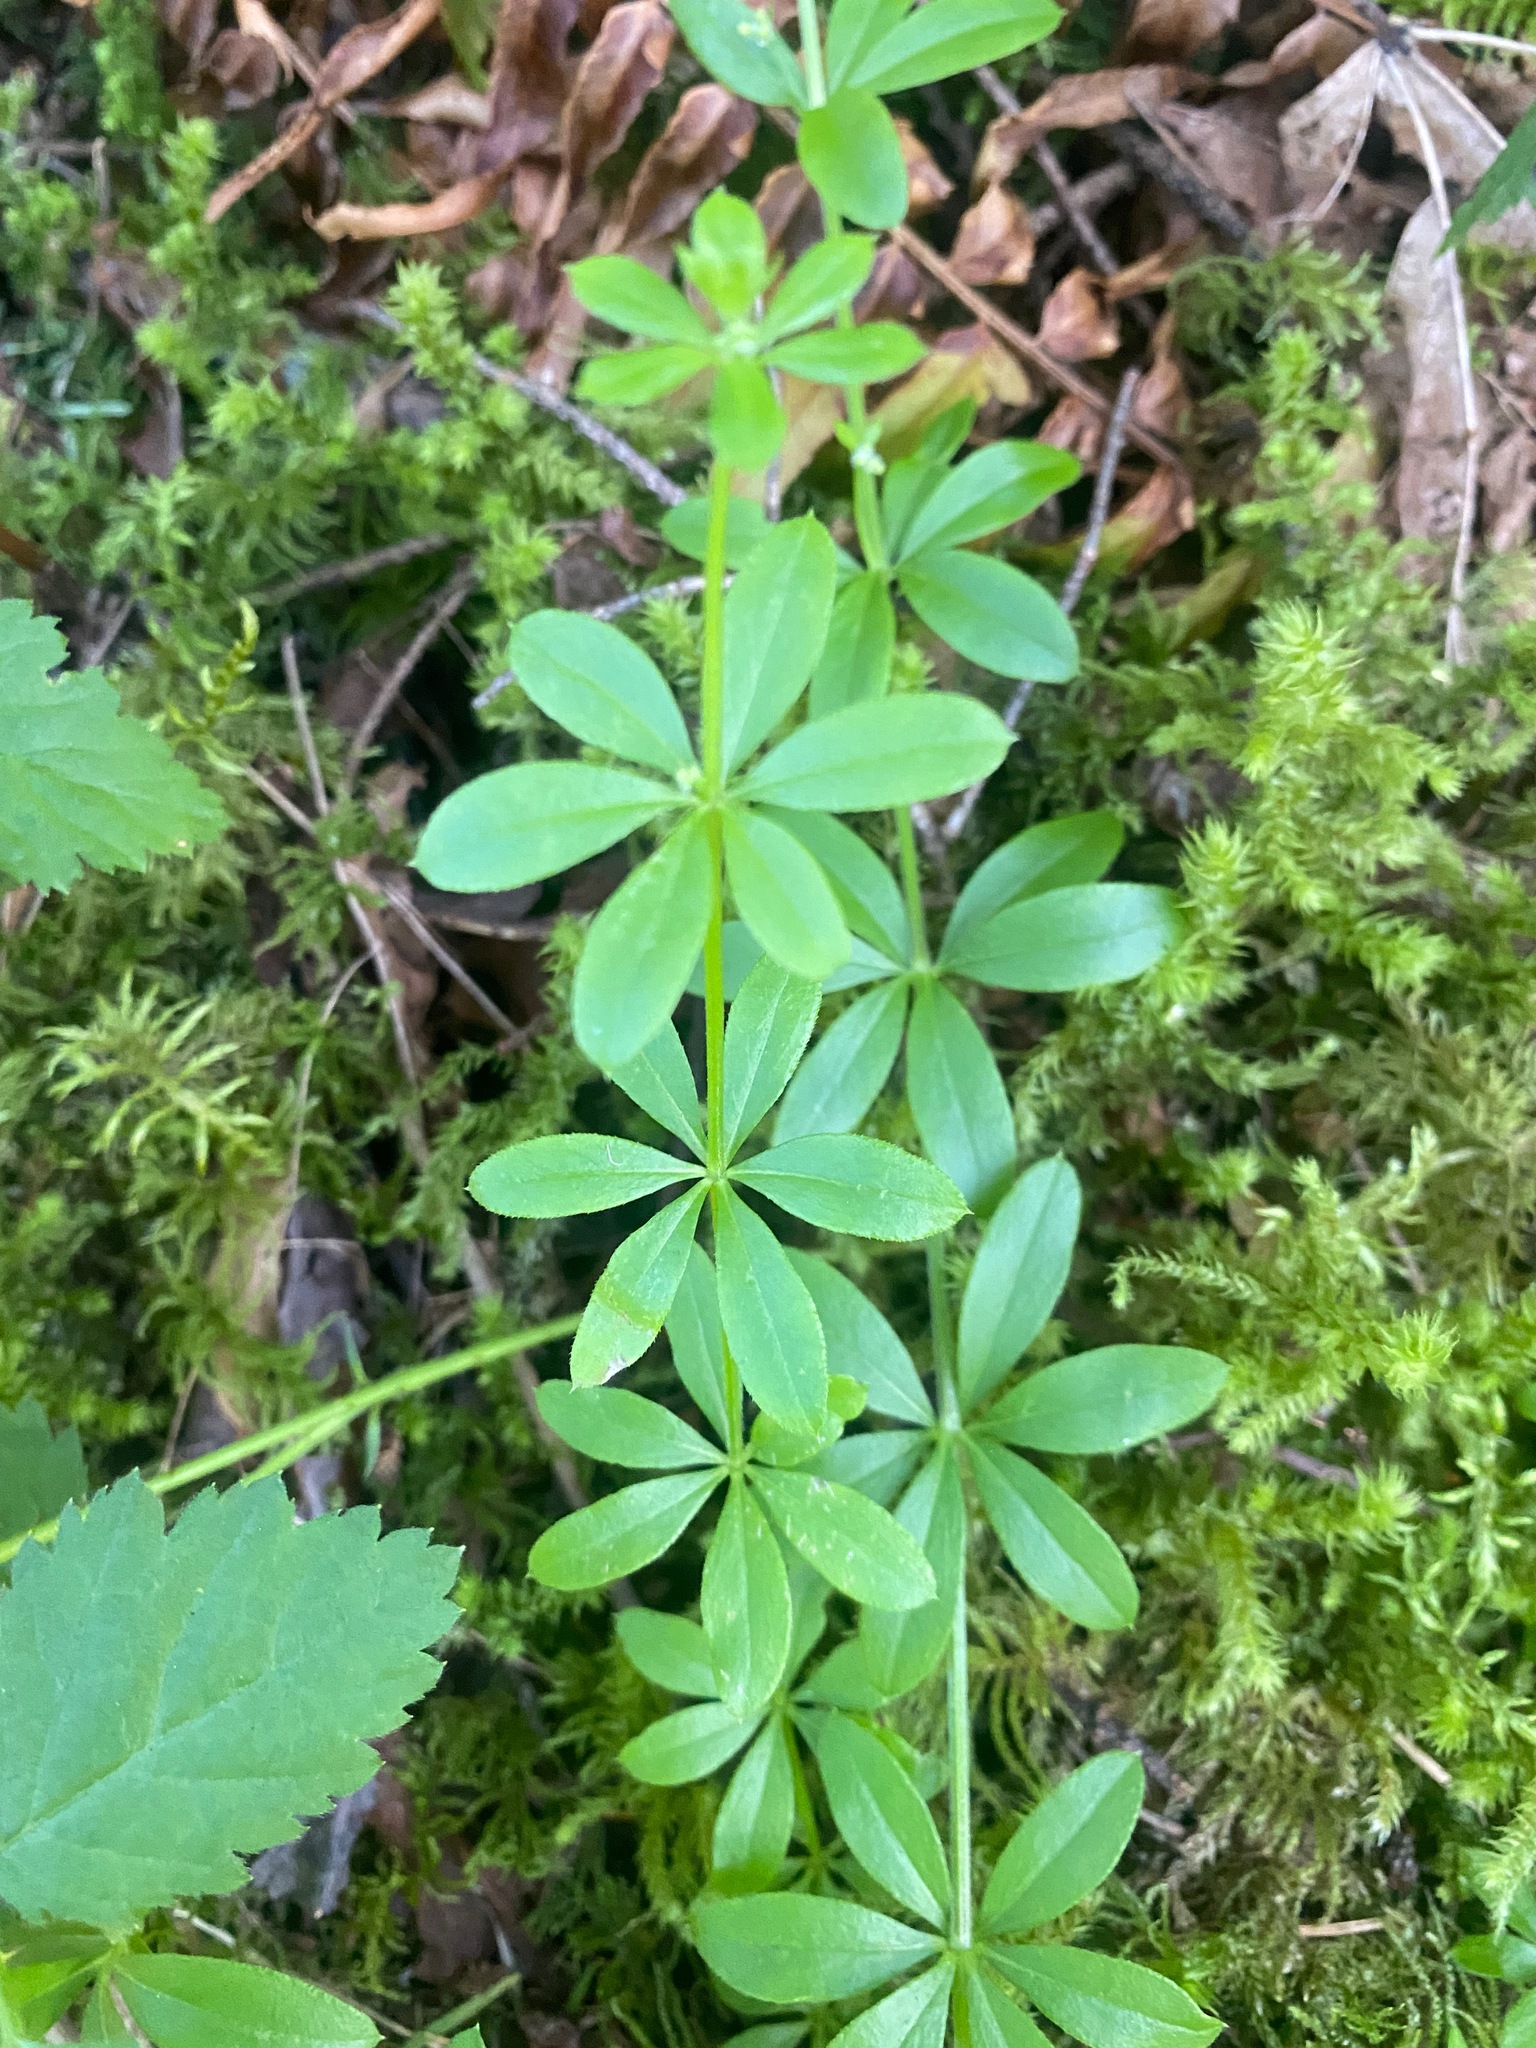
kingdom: Plantae
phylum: Tracheophyta
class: Magnoliopsida
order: Gentianales
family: Rubiaceae
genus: Galium
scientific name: Galium triflorum
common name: Fragrant bedstraw
